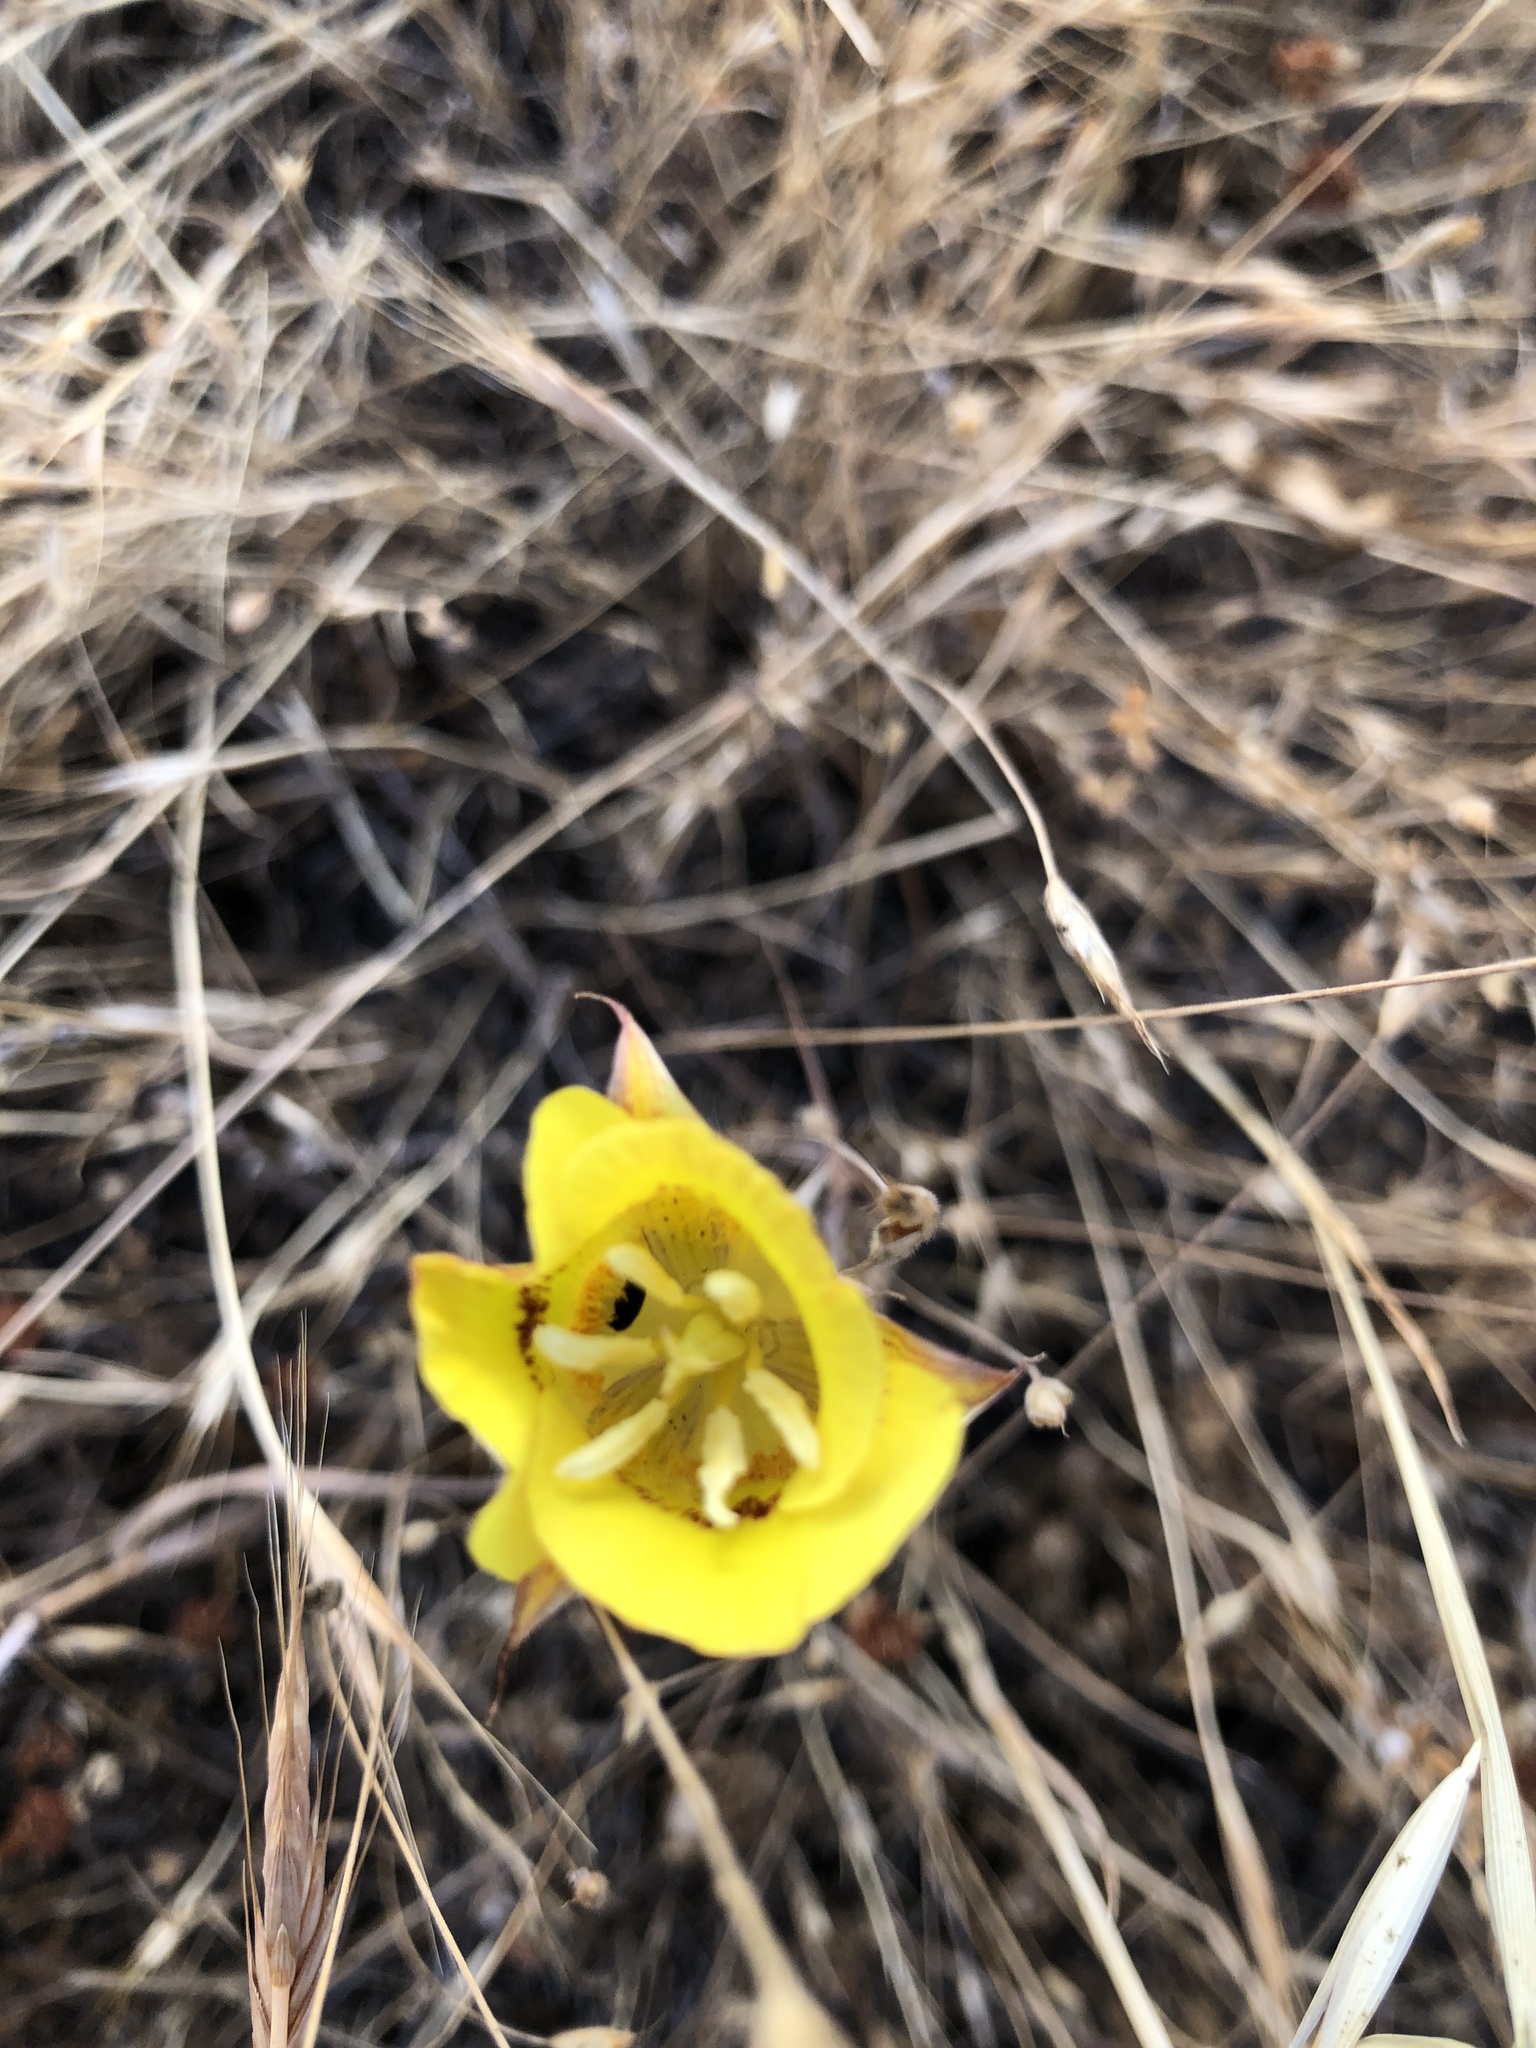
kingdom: Plantae
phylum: Tracheophyta
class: Liliopsida
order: Liliales
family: Liliaceae
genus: Calochortus
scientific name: Calochortus luteus
